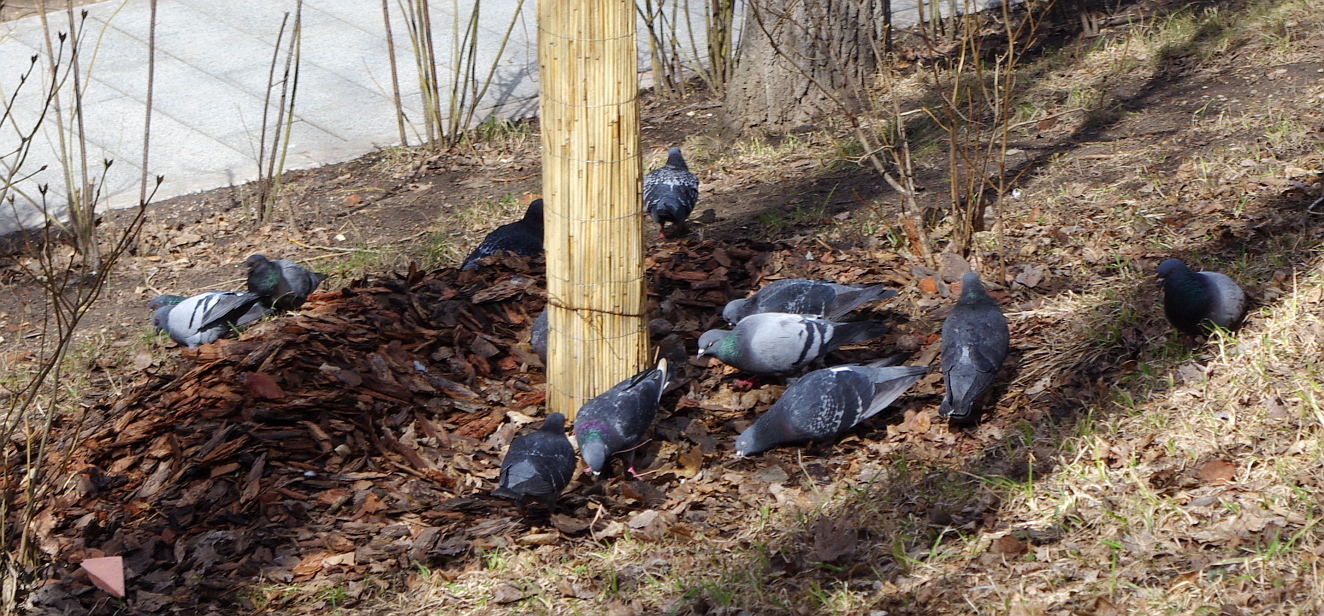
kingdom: Animalia
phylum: Chordata
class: Aves
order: Columbiformes
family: Columbidae
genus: Columba
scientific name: Columba livia
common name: Rock pigeon
